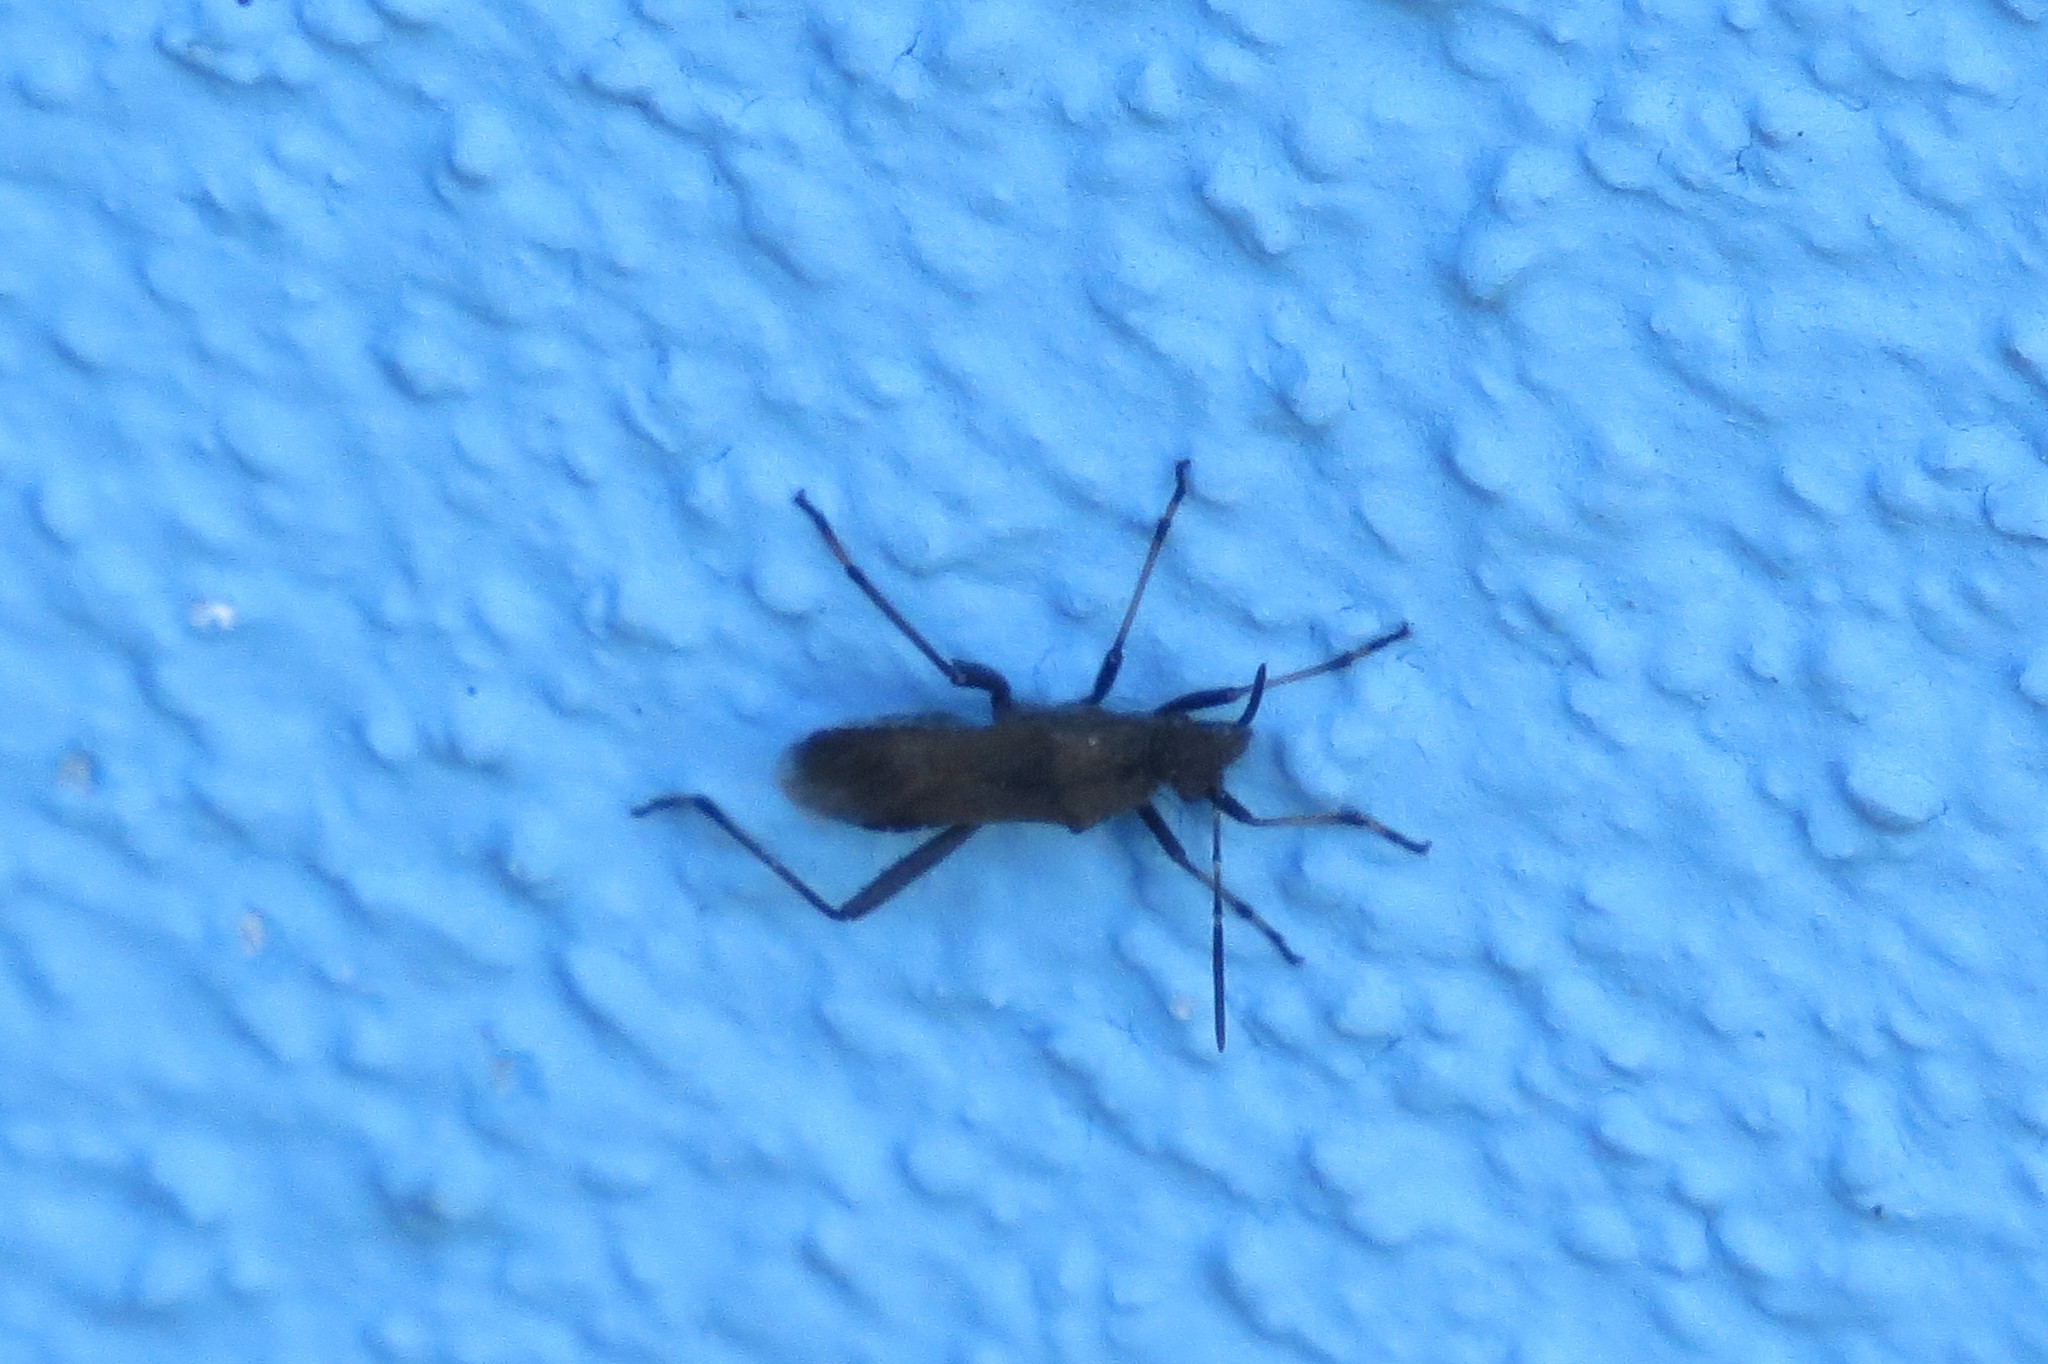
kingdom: Animalia
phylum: Arthropoda
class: Insecta
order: Hemiptera
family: Alydidae
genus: Alydus
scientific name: Alydus calcaratus
